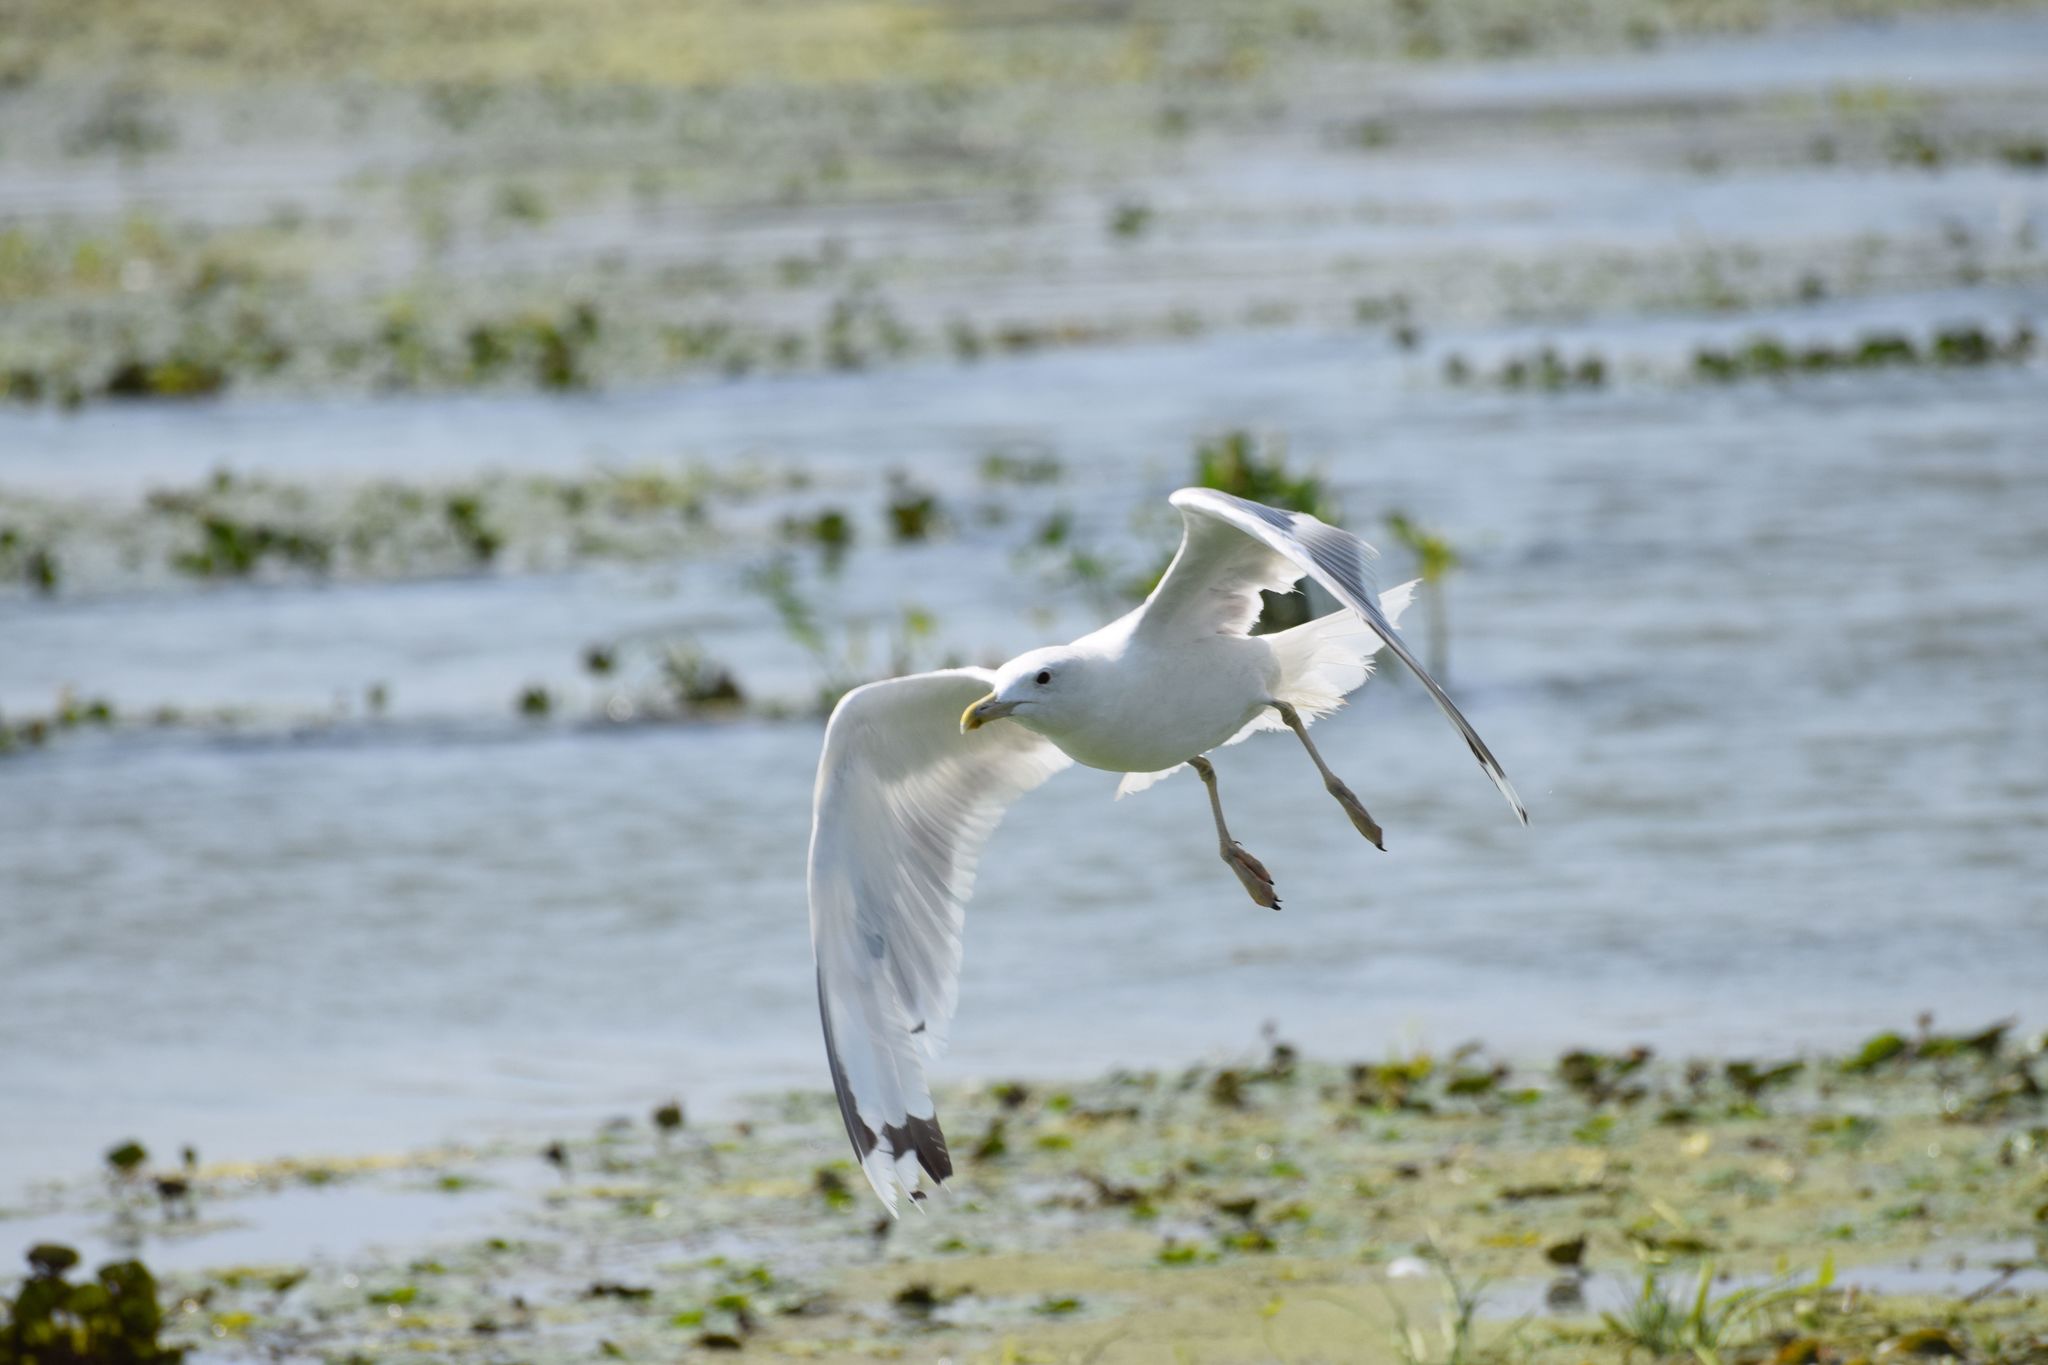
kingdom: Animalia
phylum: Chordata
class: Aves
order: Charadriiformes
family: Laridae
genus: Larus
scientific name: Larus cachinnans
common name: Caspian gull
